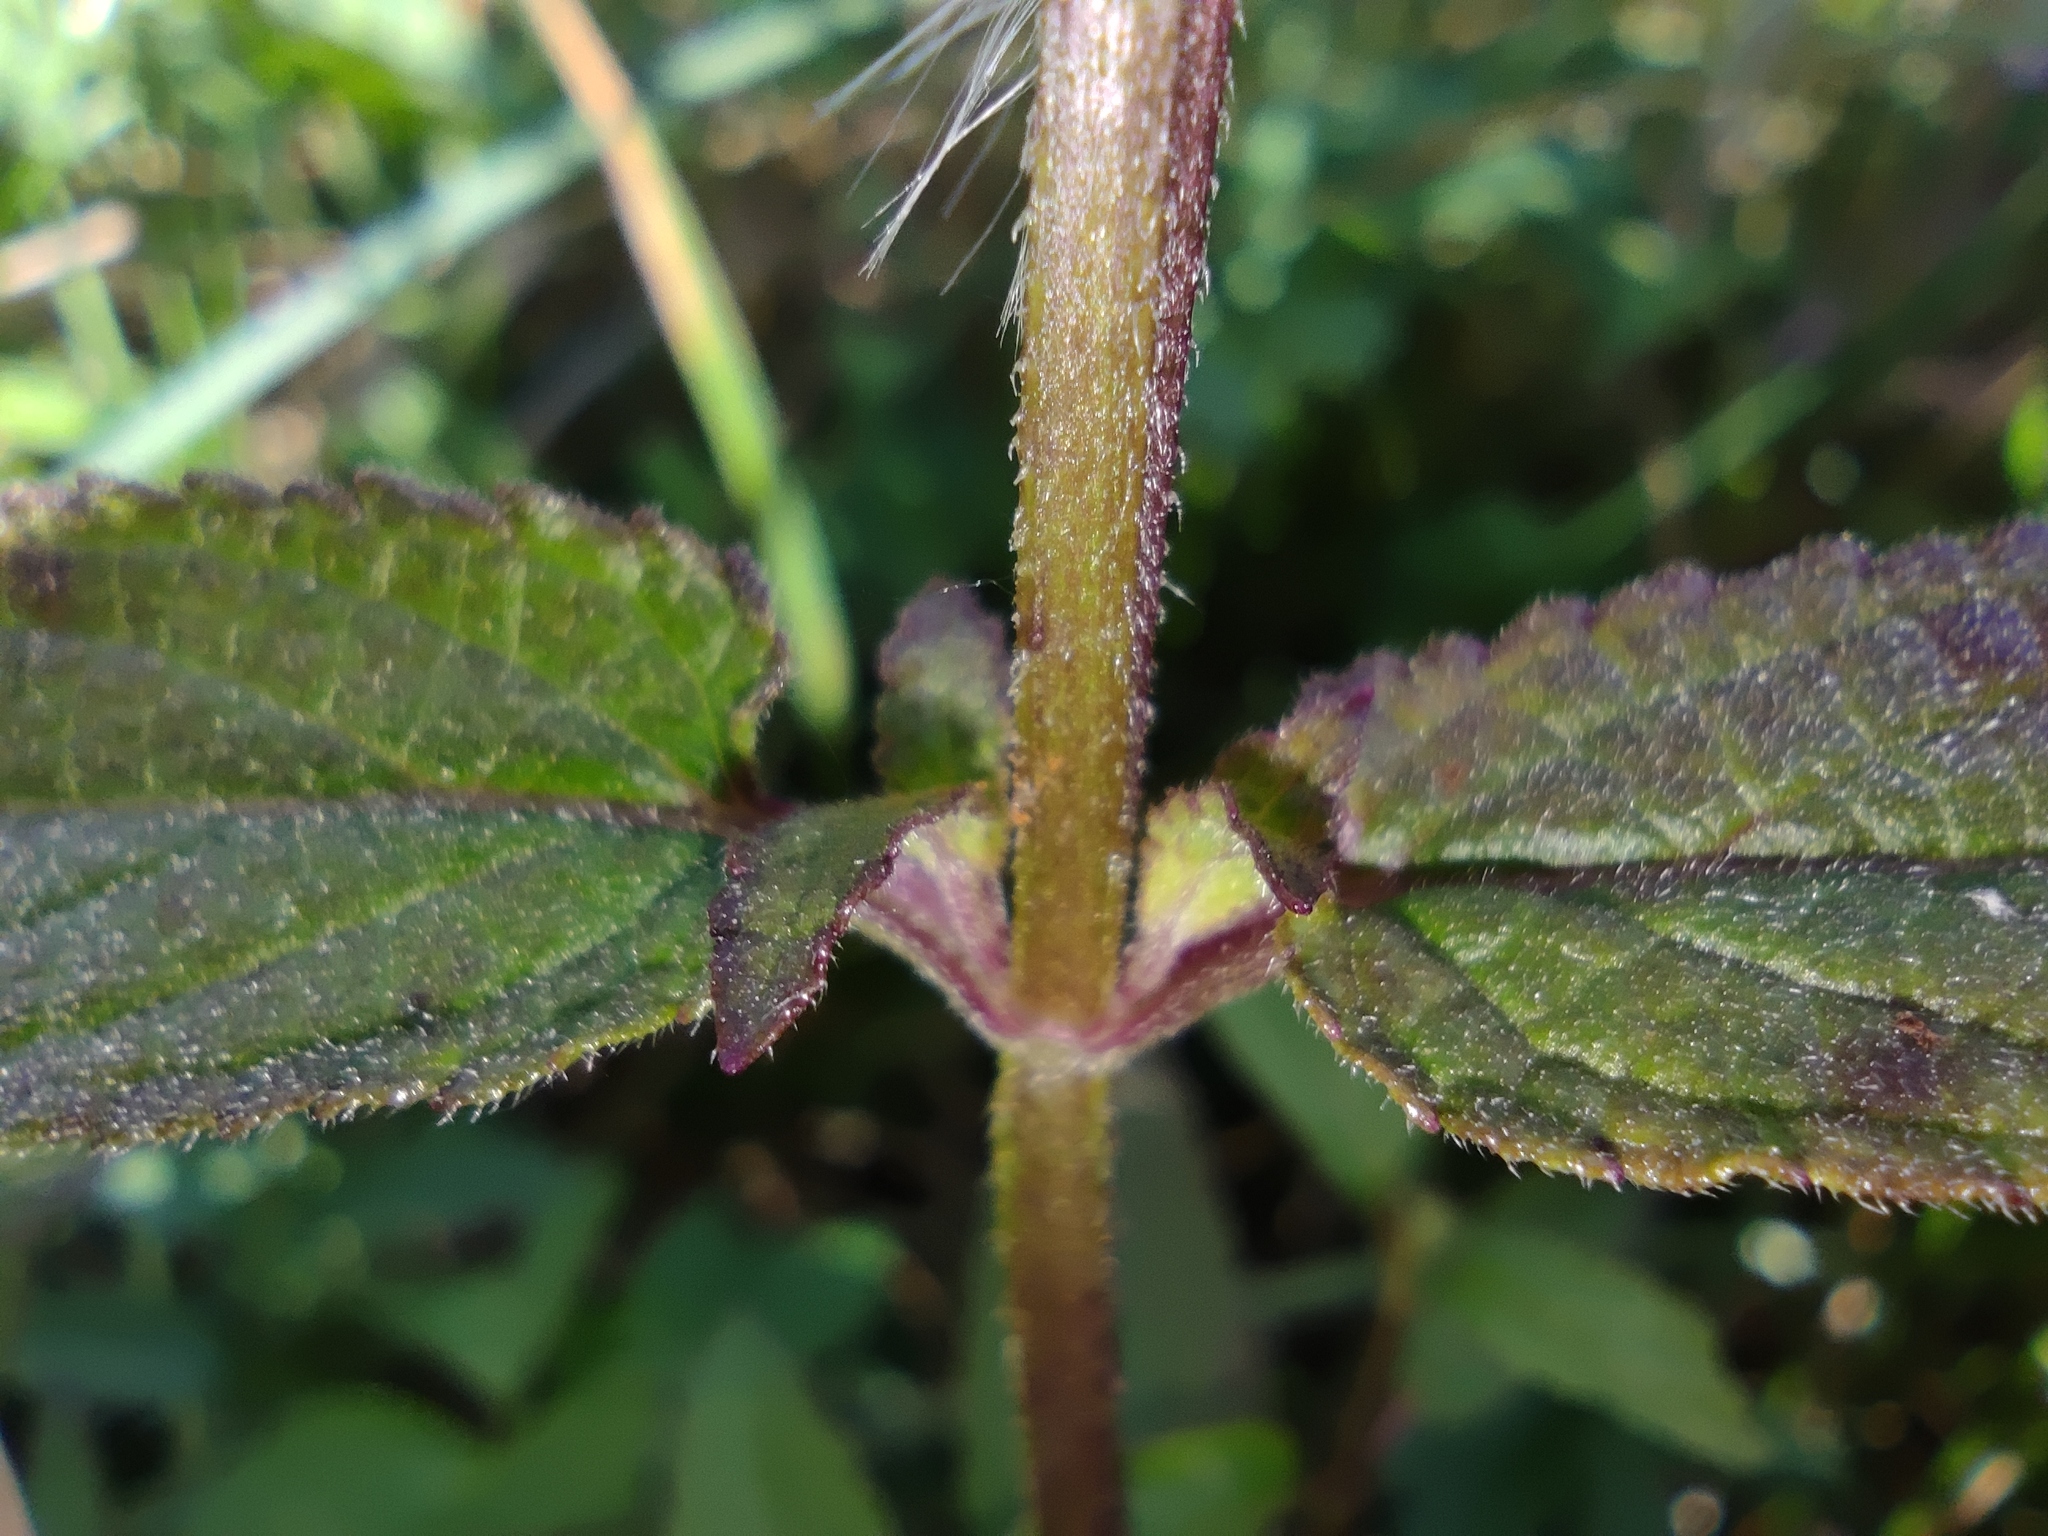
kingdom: Plantae
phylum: Tracheophyta
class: Magnoliopsida
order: Lamiales
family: Lamiaceae
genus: Stachys
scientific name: Stachys palustris
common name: Marsh woundwort
